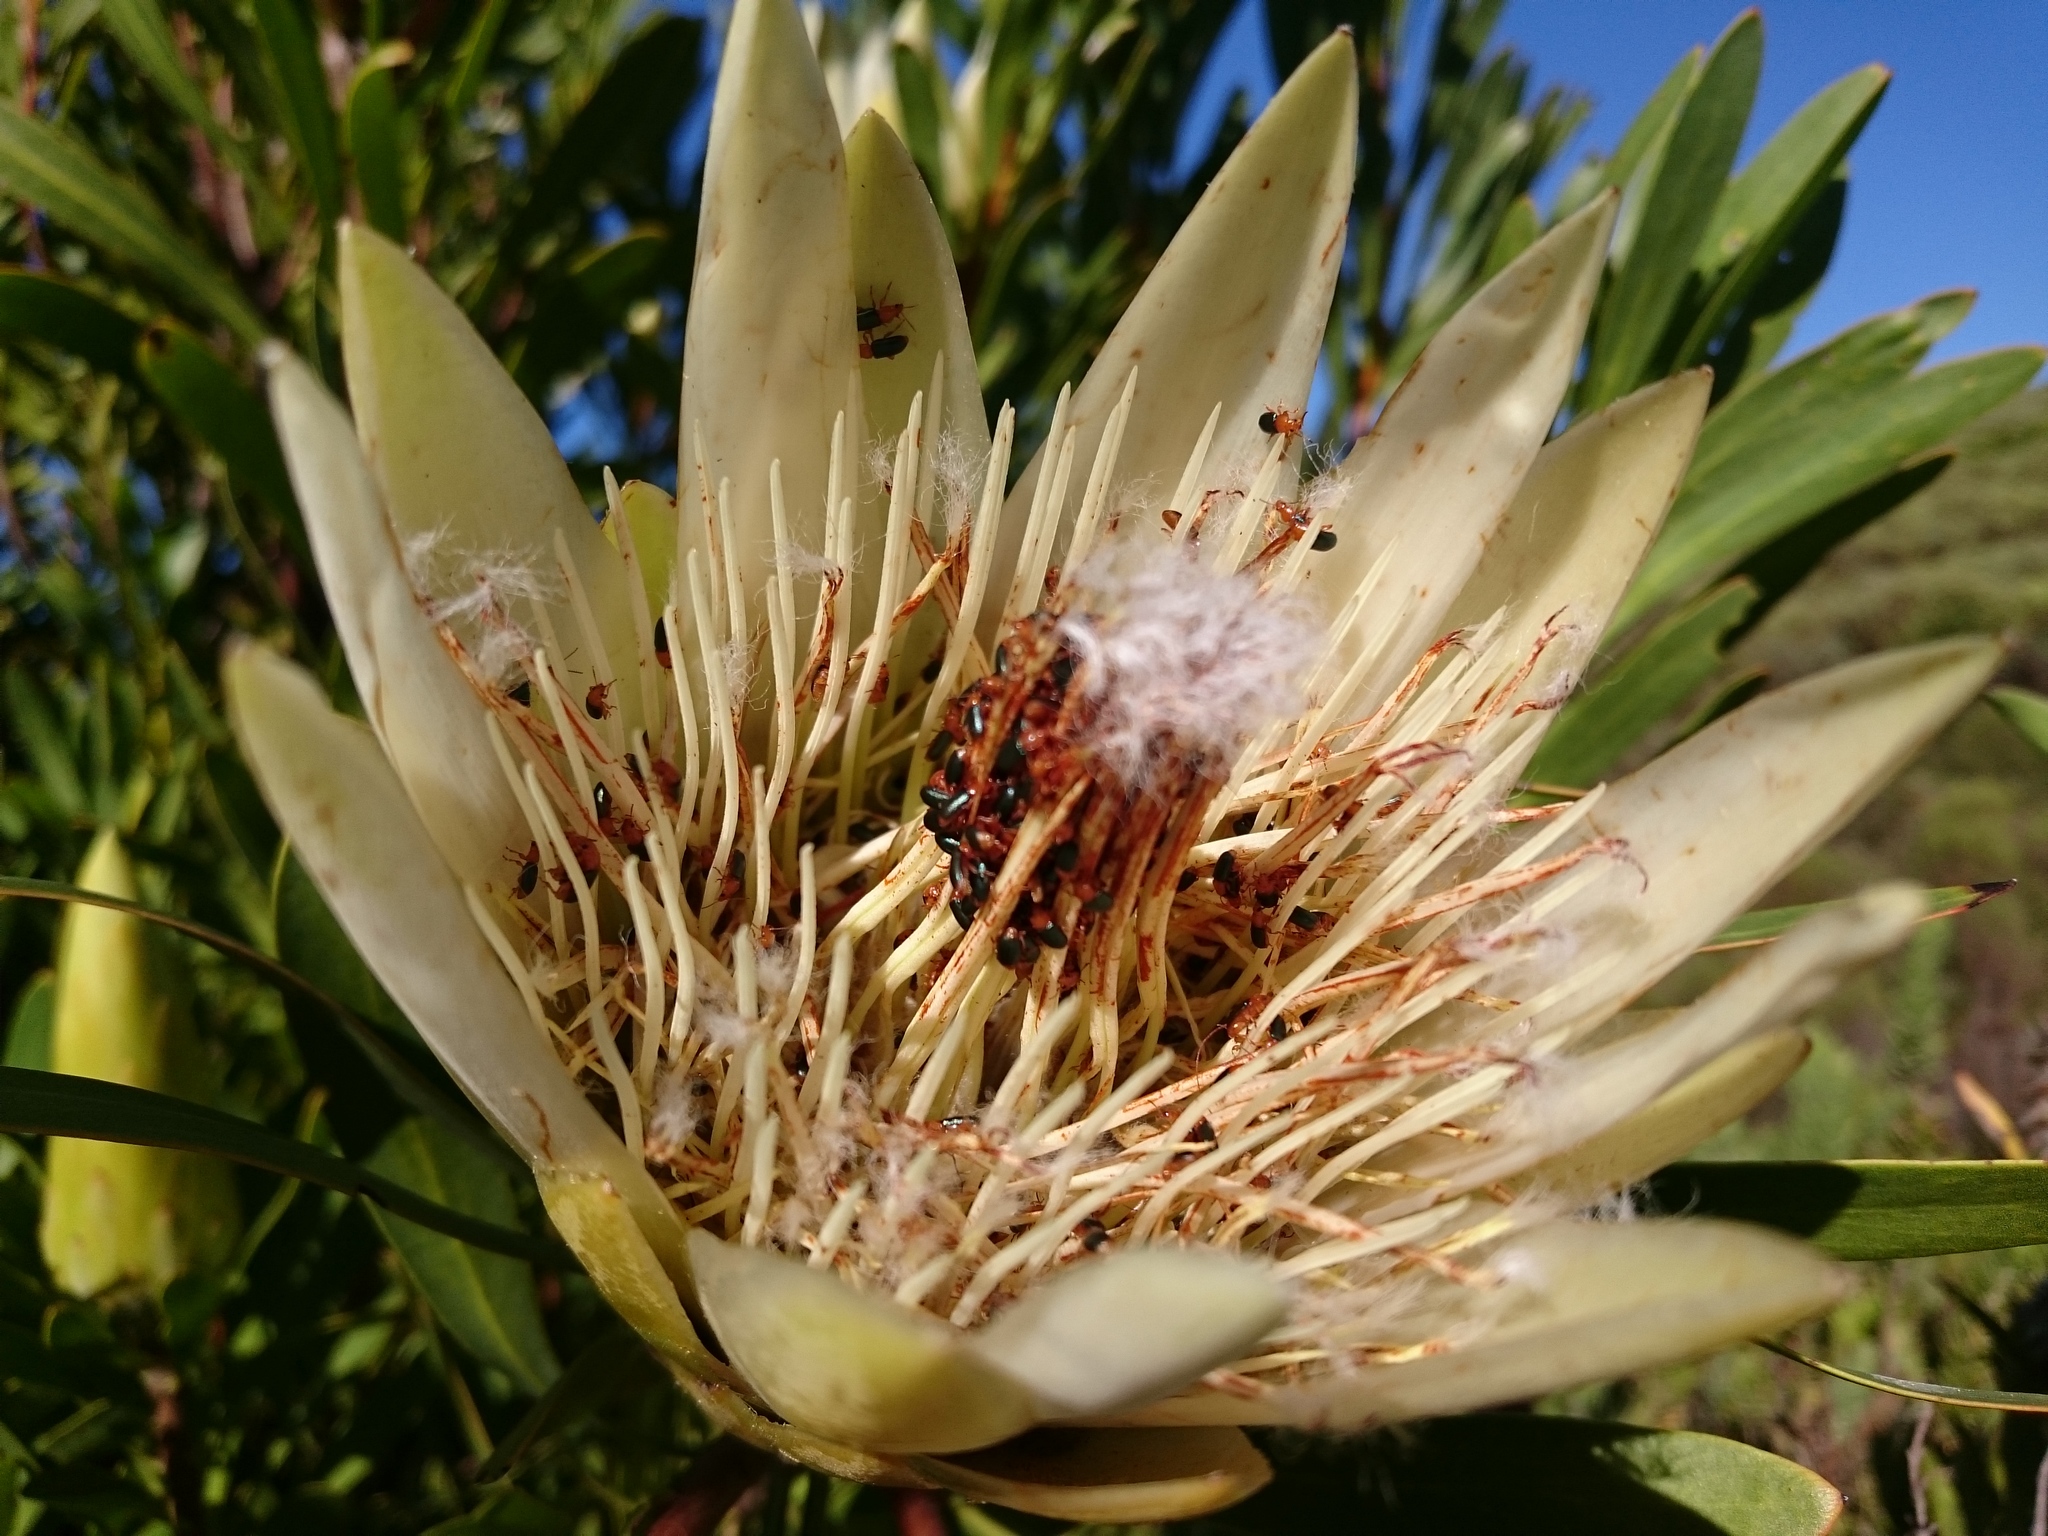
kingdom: Plantae
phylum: Tracheophyta
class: Magnoliopsida
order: Proteales
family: Proteaceae
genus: Protea
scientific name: Protea repens
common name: Sugarbush
